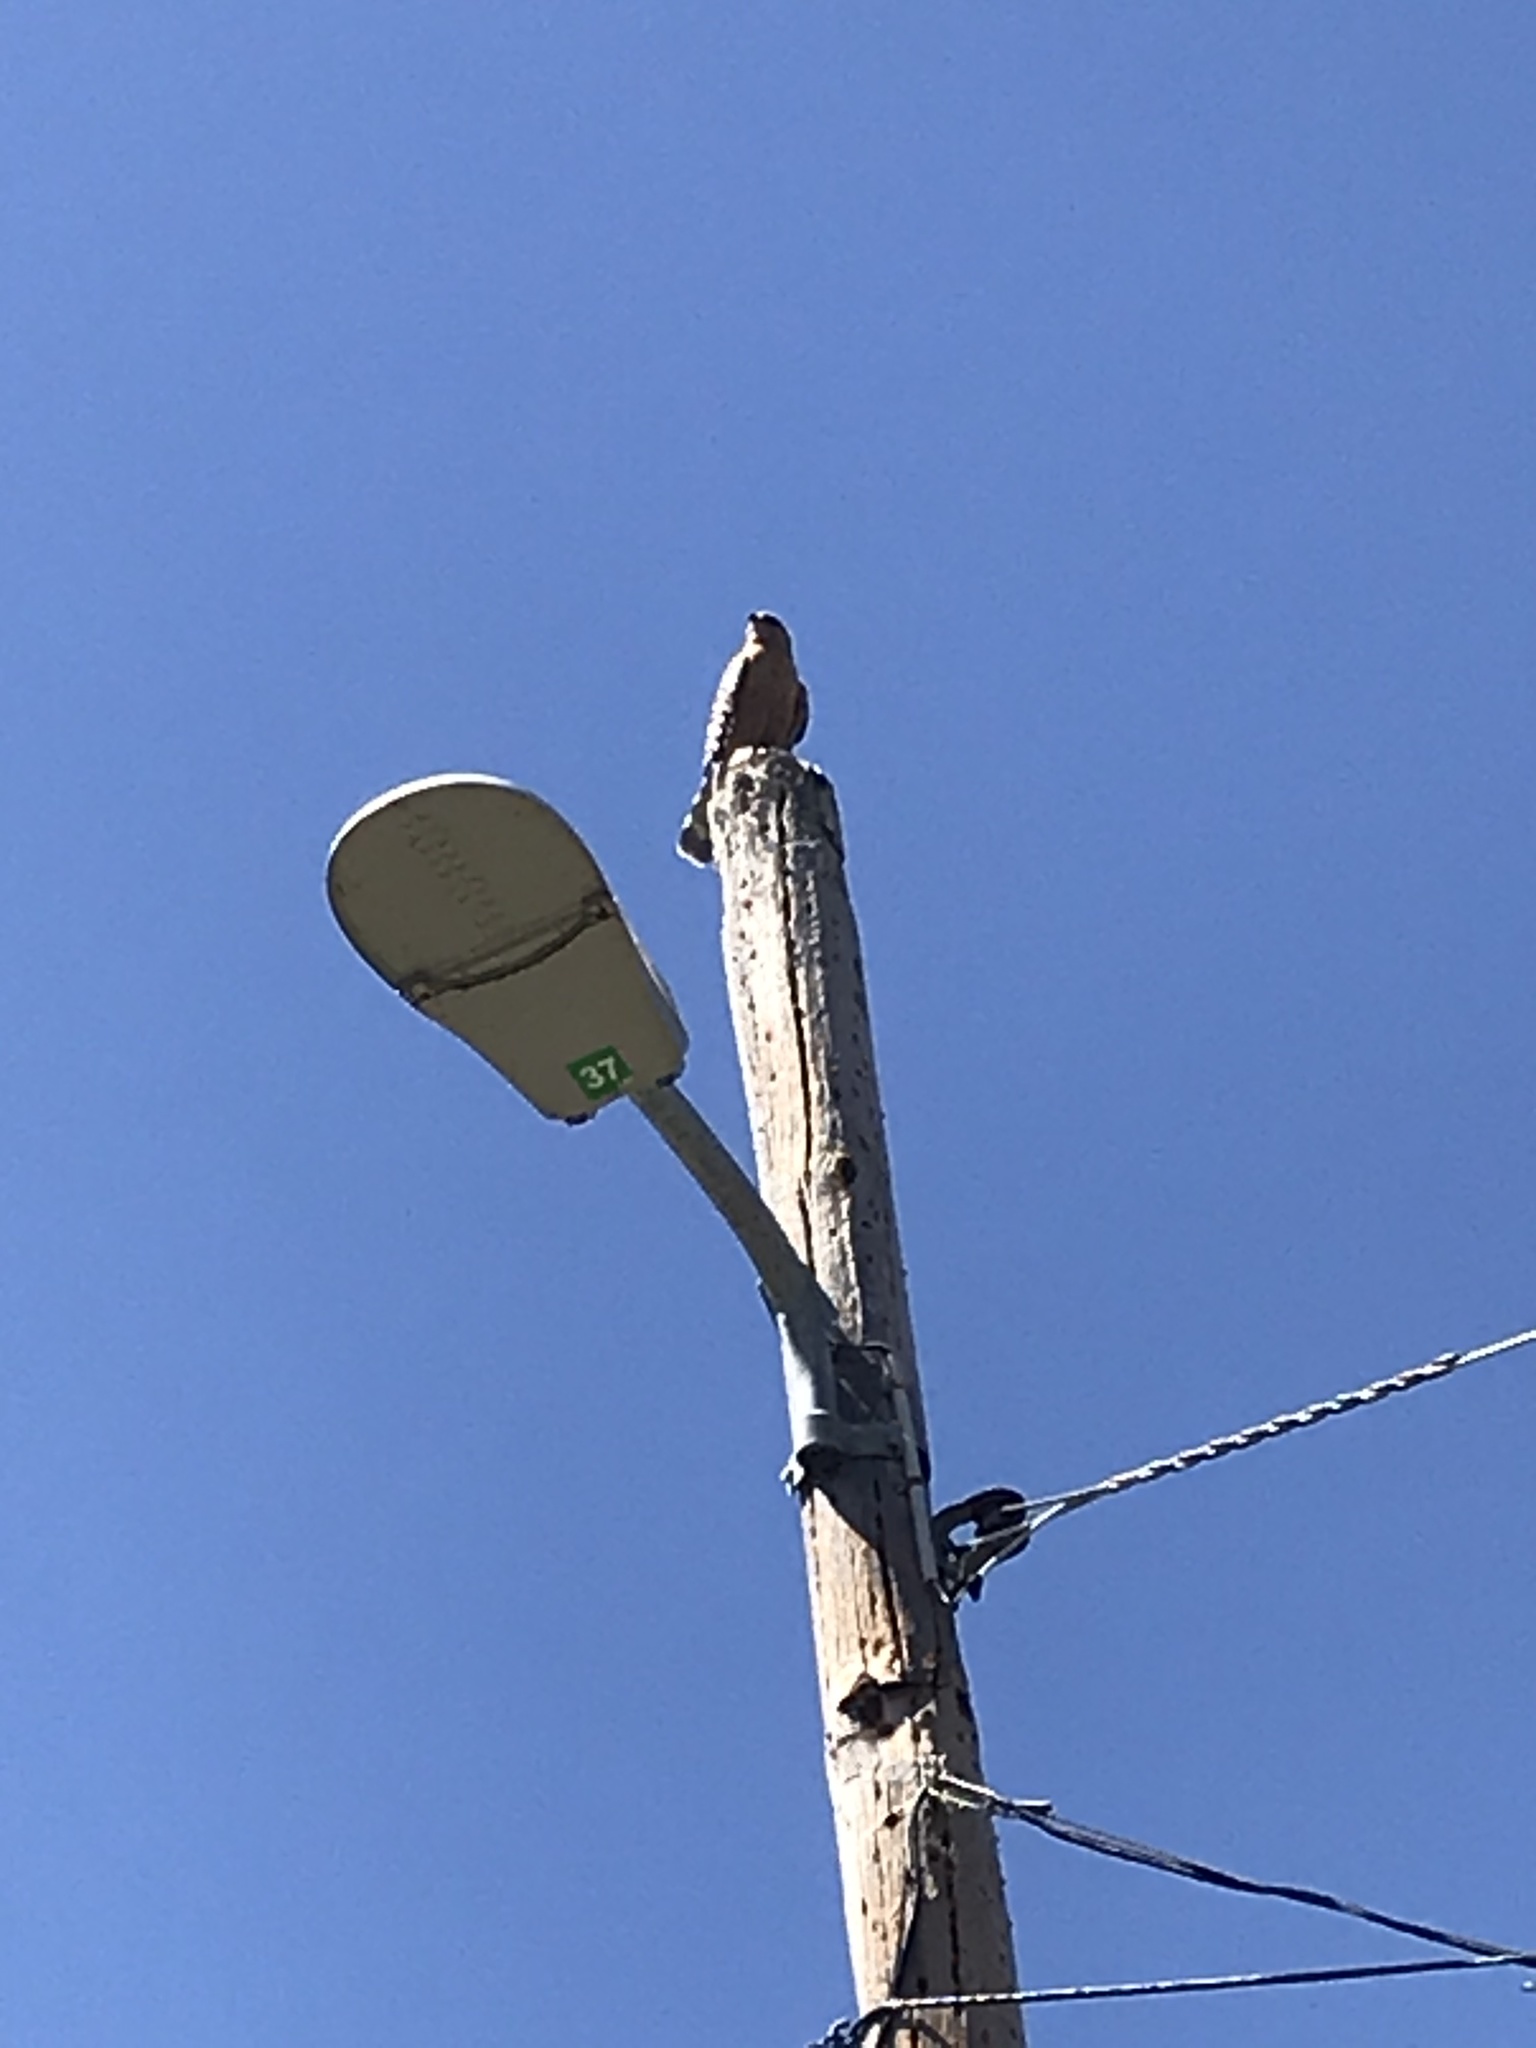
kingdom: Animalia
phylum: Chordata
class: Aves
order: Accipitriformes
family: Accipitridae
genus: Buteo
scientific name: Buteo lineatus
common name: Red-shouldered hawk
